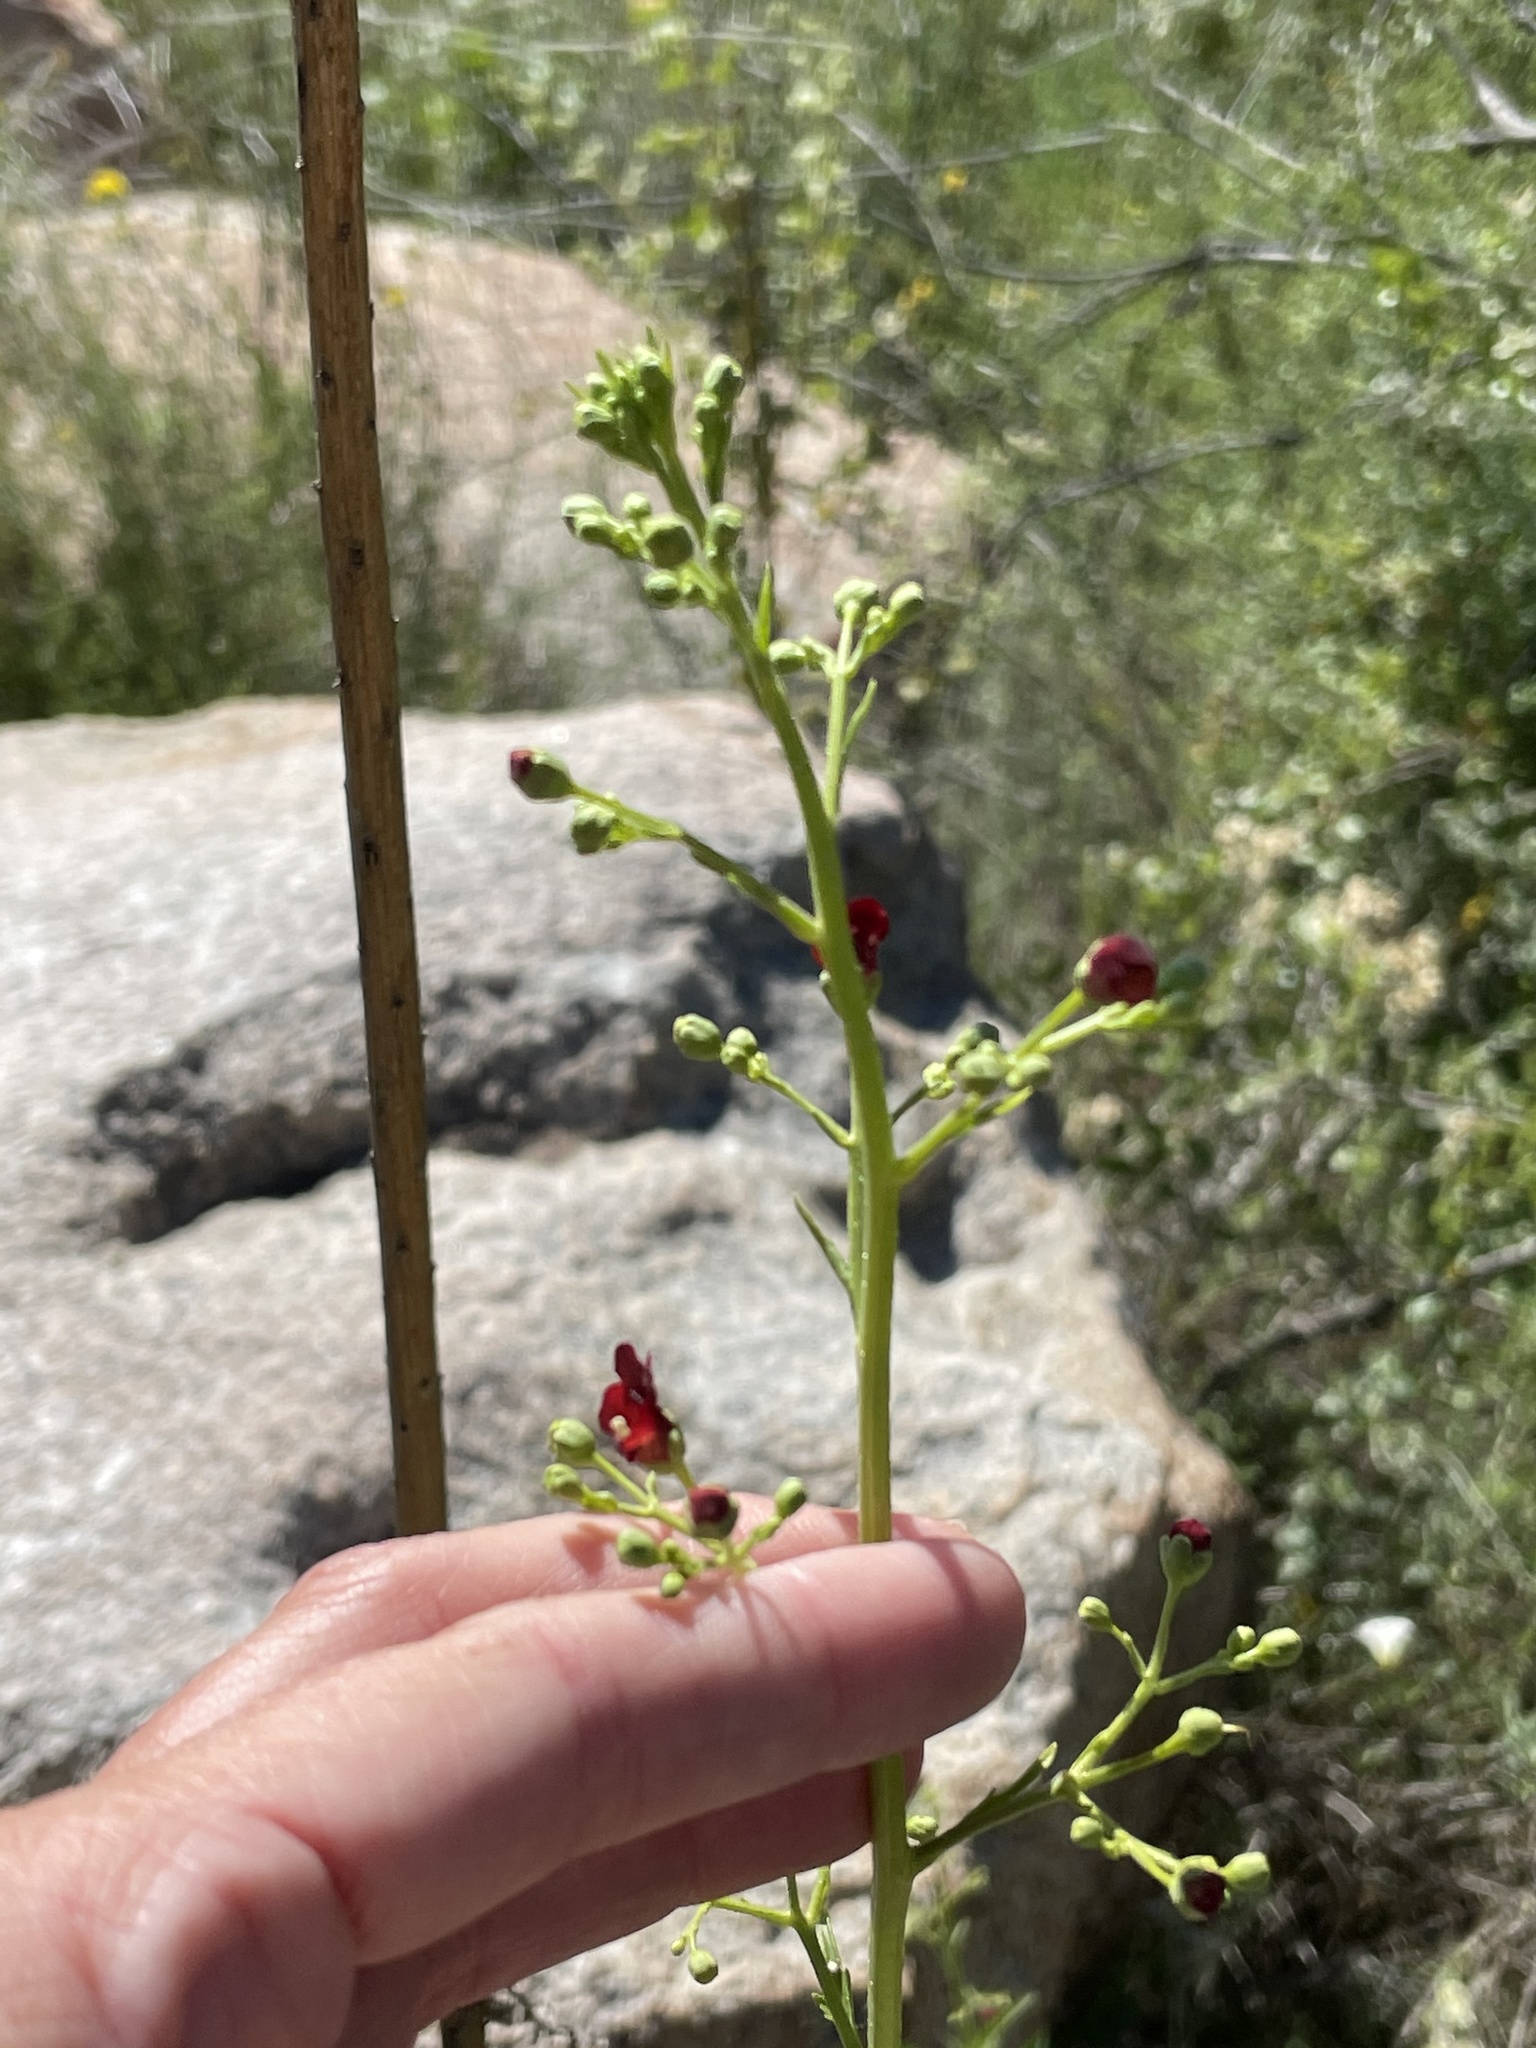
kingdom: Plantae
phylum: Tracheophyta
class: Magnoliopsida
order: Lamiales
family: Scrophulariaceae
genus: Scrophularia
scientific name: Scrophularia californica
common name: California figwort
